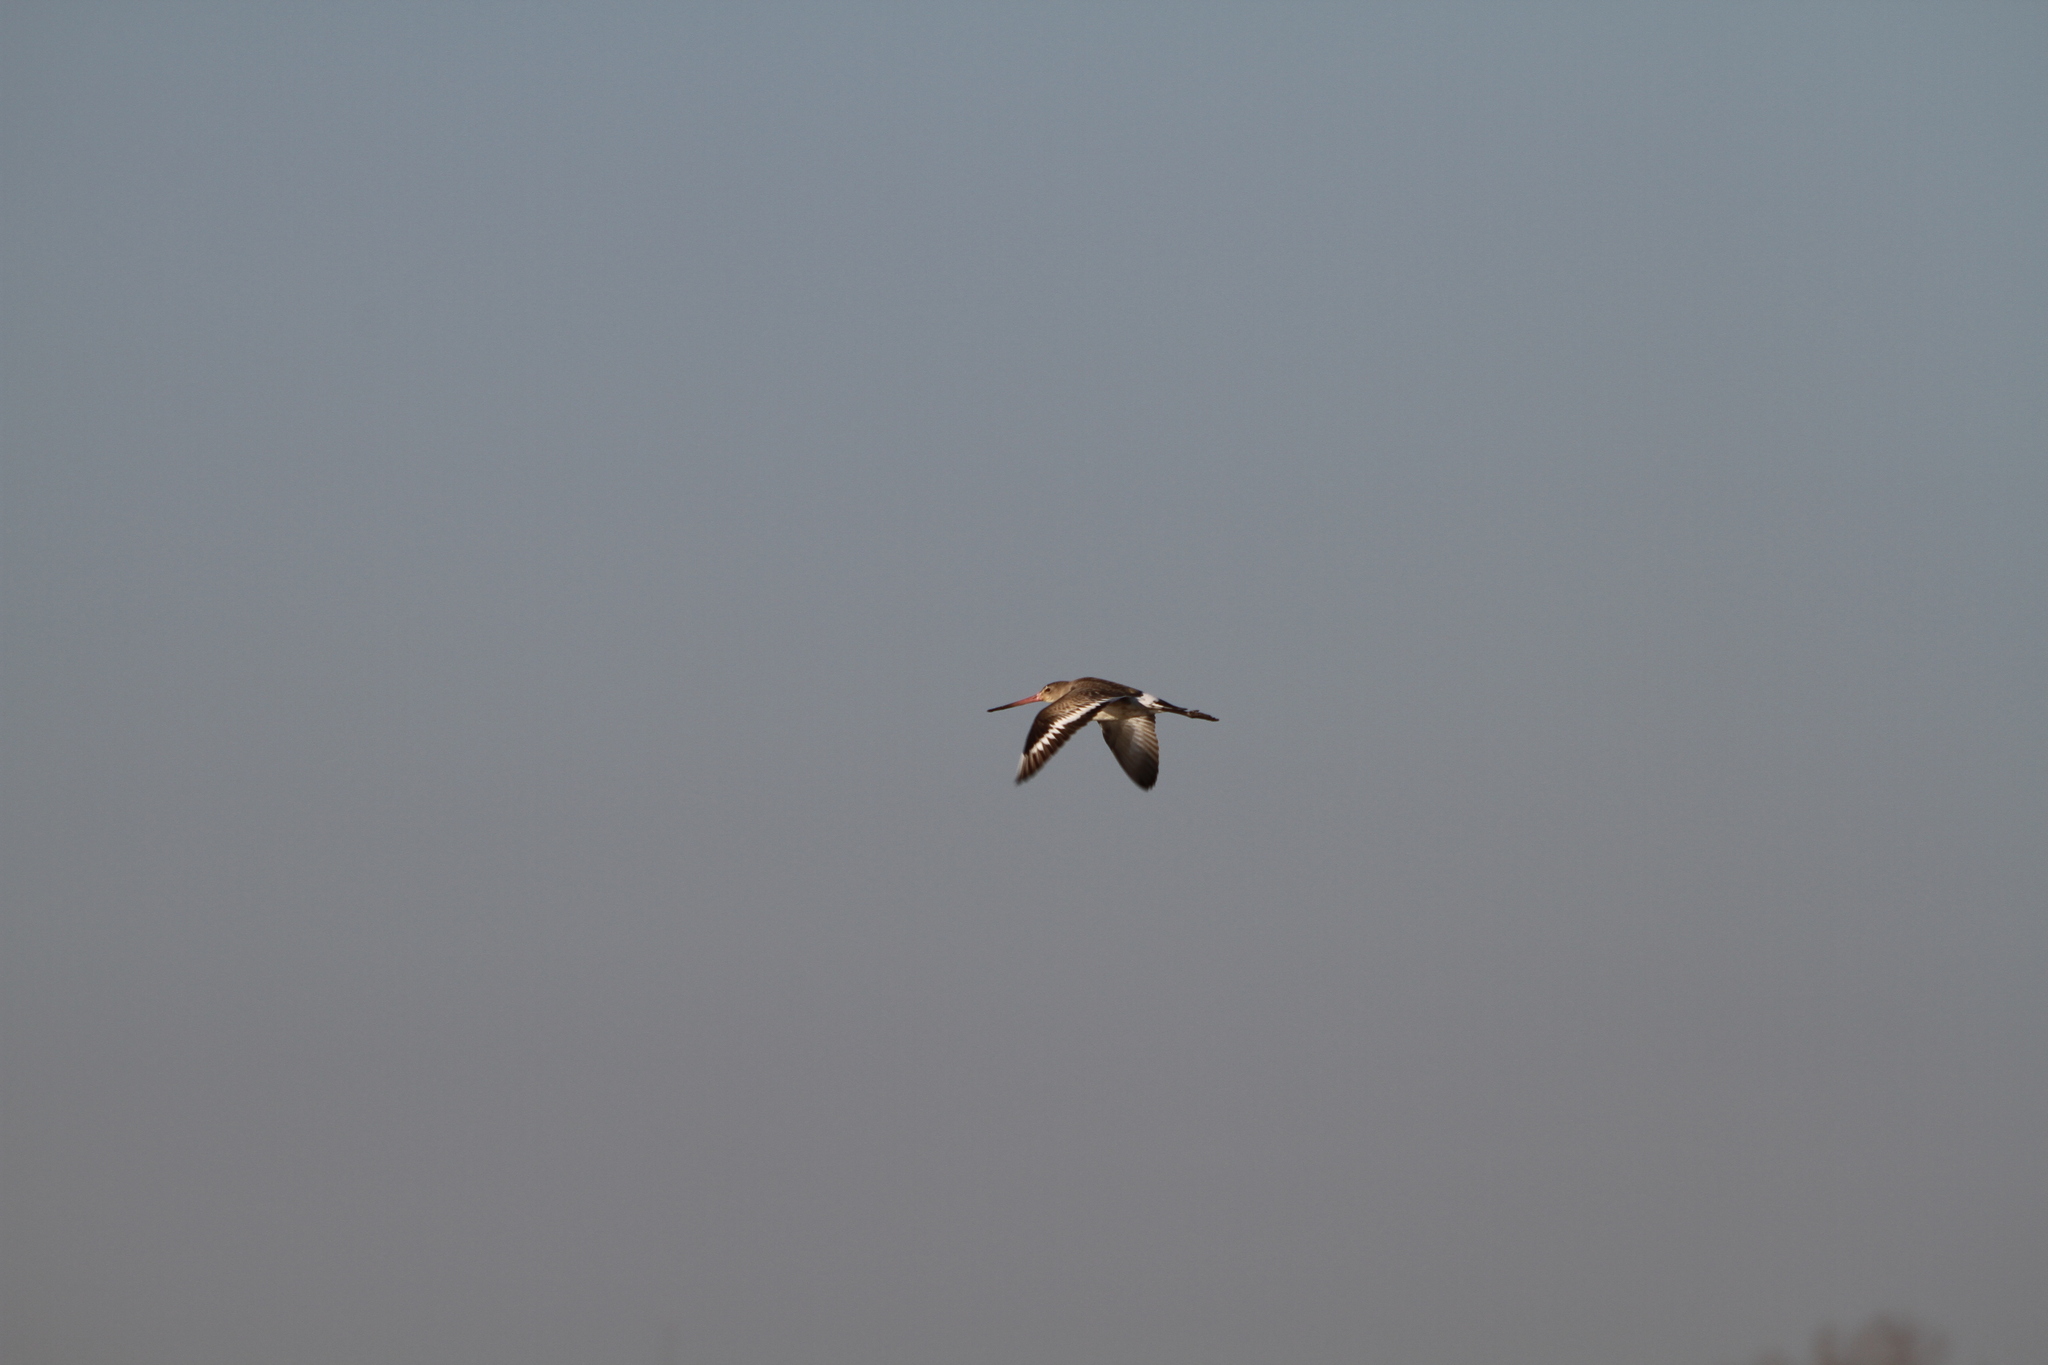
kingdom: Animalia
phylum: Chordata
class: Aves
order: Charadriiformes
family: Scolopacidae
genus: Limosa
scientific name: Limosa limosa
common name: Black-tailed godwit
